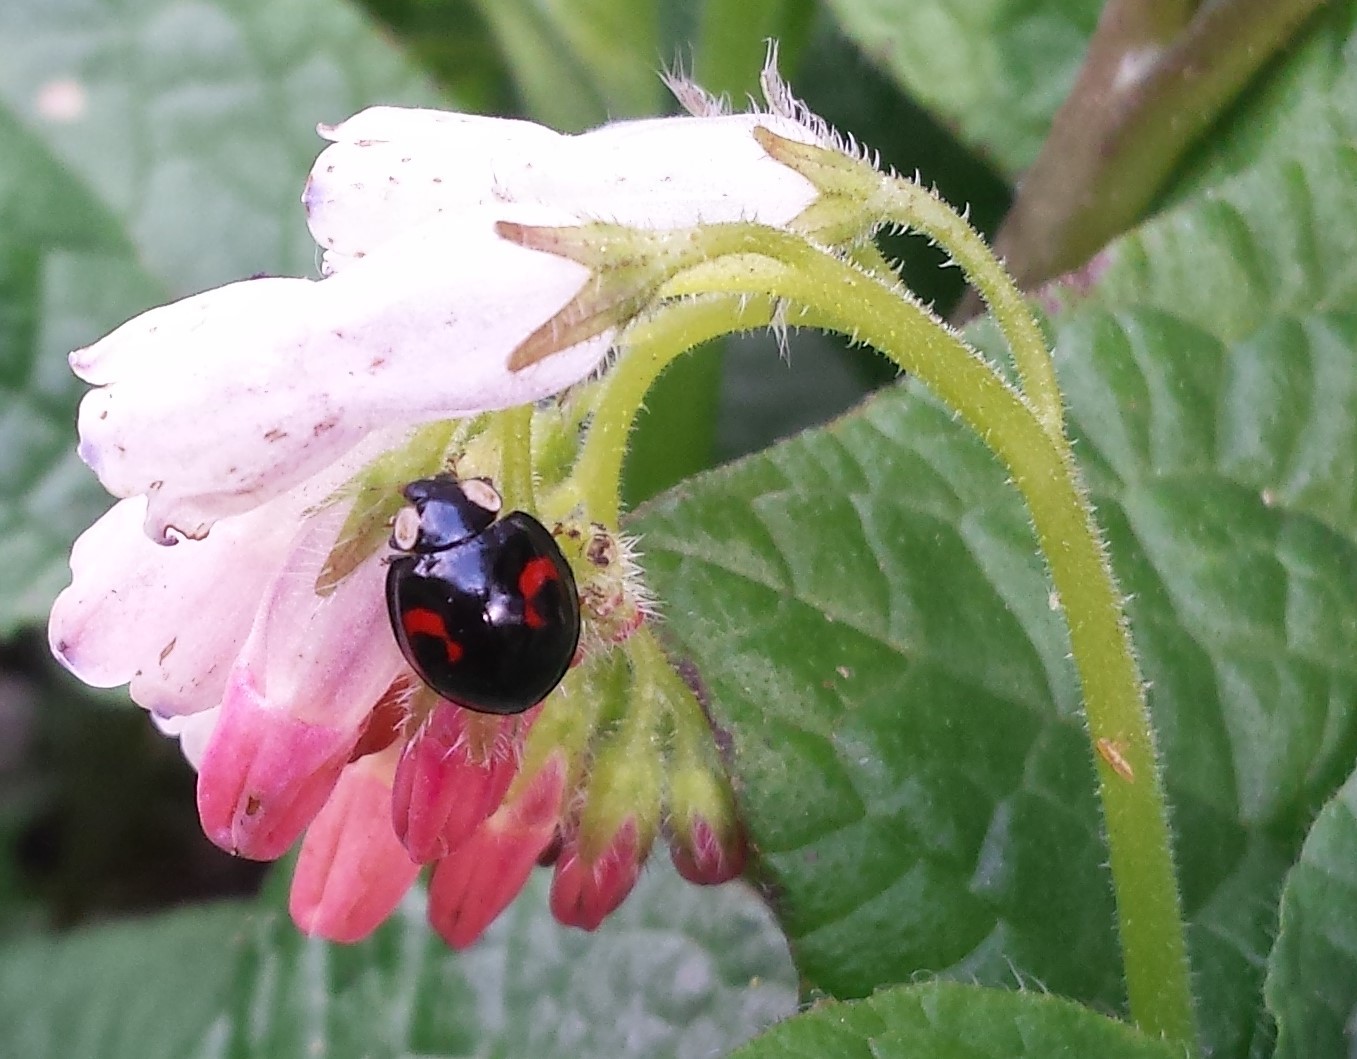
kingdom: Animalia
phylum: Arthropoda
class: Insecta
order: Coleoptera
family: Coccinellidae
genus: Harmonia
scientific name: Harmonia axyridis
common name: Harlequin ladybird
